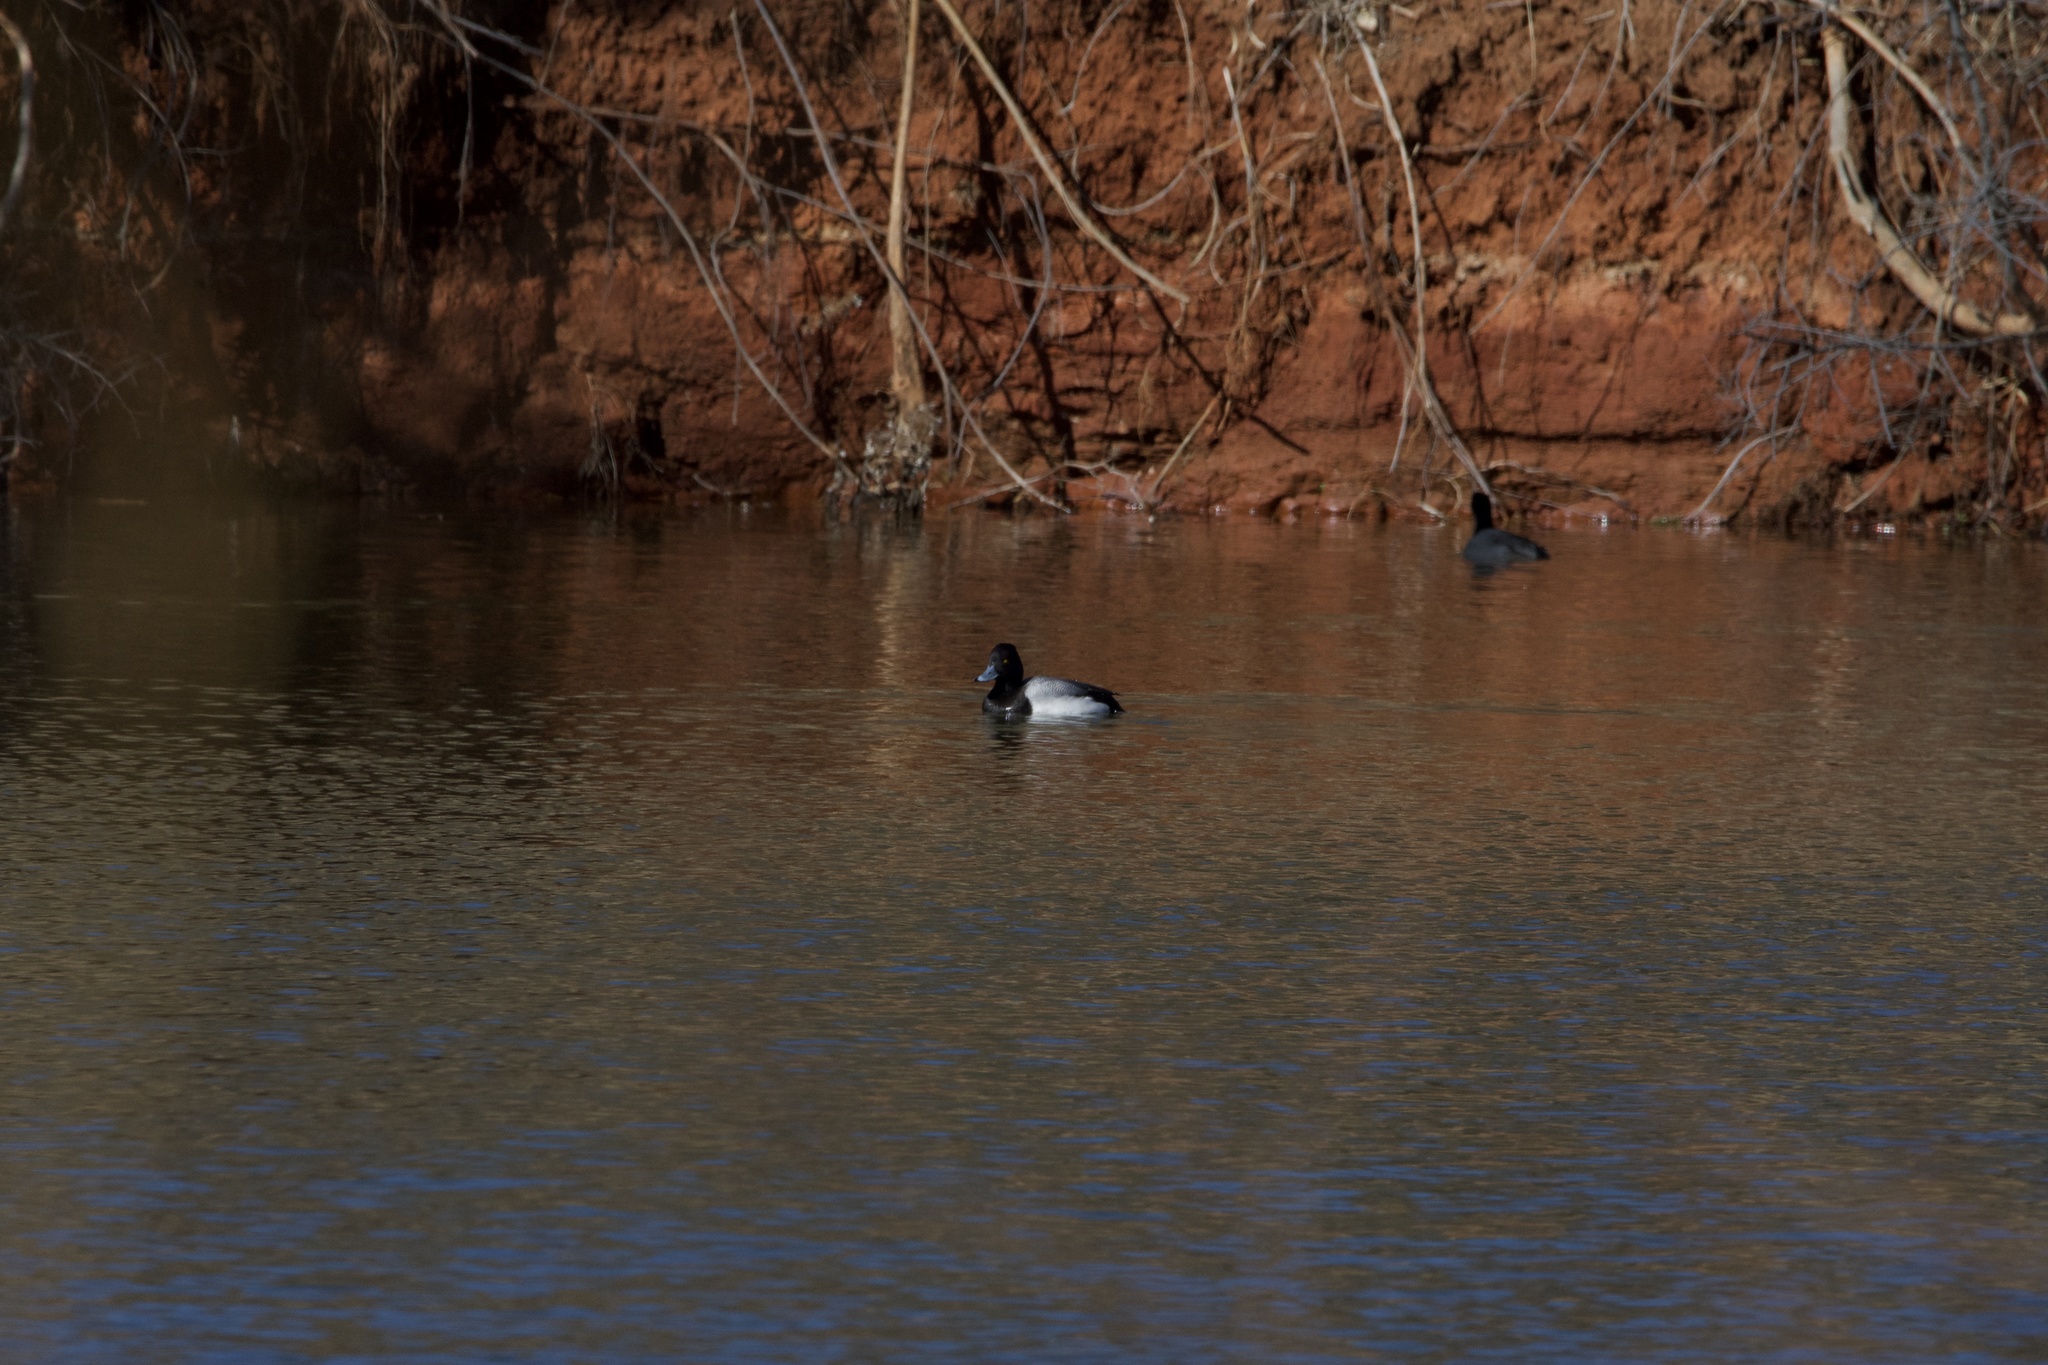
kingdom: Animalia
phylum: Chordata
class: Aves
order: Anseriformes
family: Anatidae
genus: Aythya
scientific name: Aythya affinis
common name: Lesser scaup
